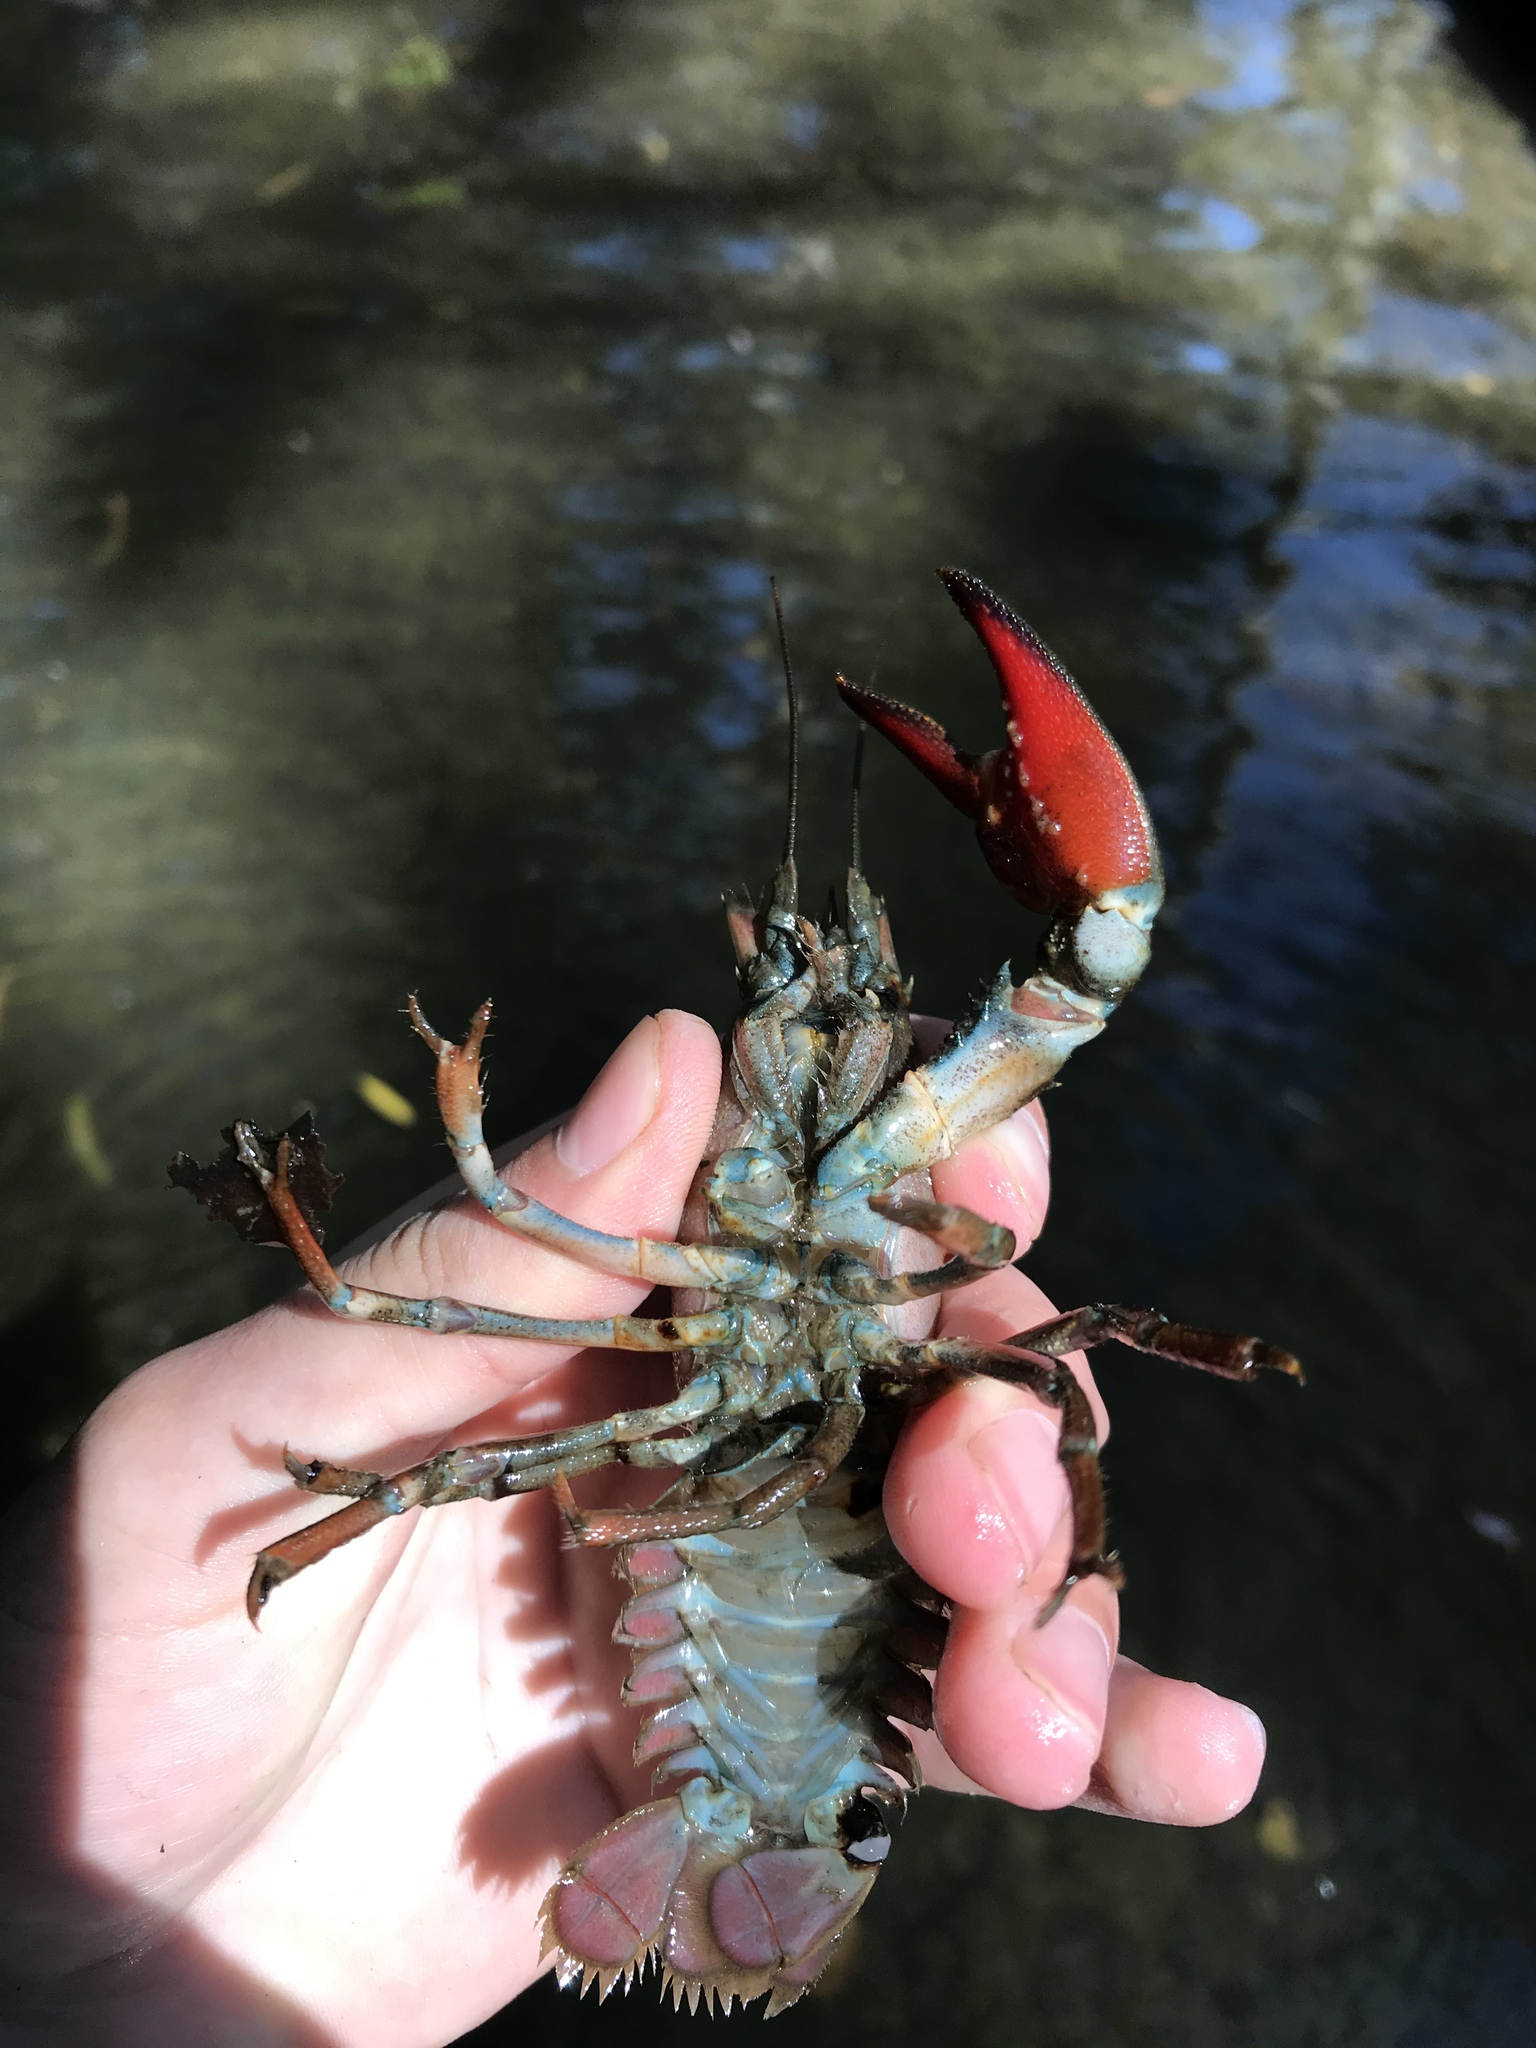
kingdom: Animalia
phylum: Arthropoda
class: Malacostraca
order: Decapoda
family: Astacidae
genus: Pacifastacus
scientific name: Pacifastacus leniusculus
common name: Signal crayfish
